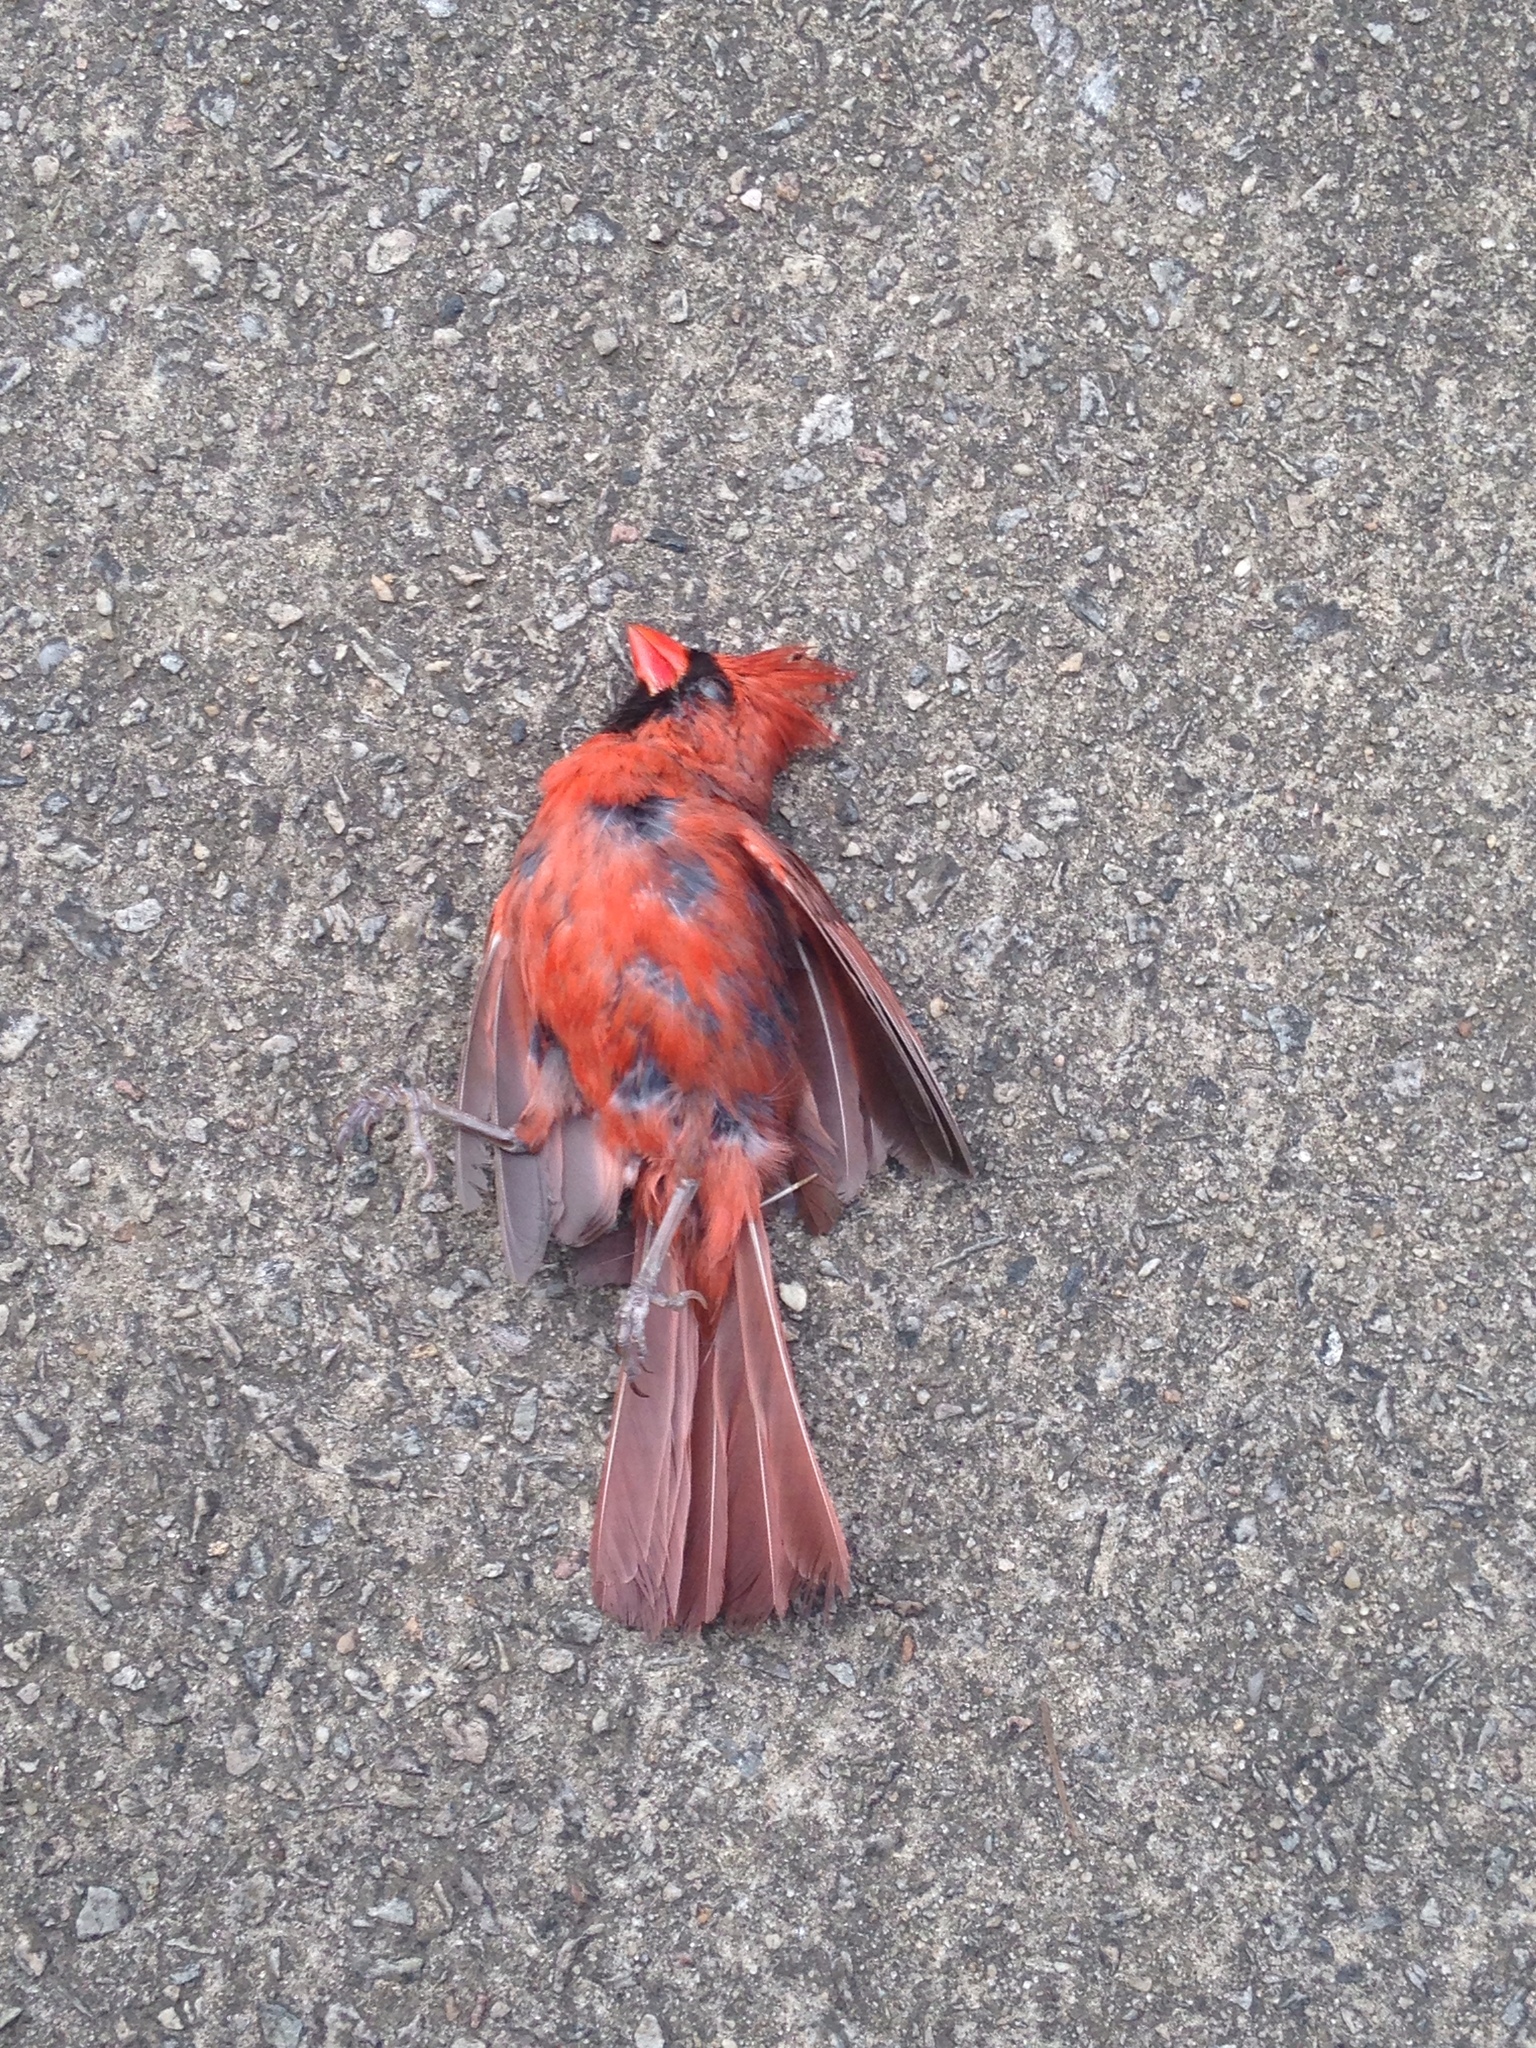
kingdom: Animalia
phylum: Chordata
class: Aves
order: Passeriformes
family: Cardinalidae
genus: Cardinalis
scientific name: Cardinalis cardinalis
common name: Northern cardinal
